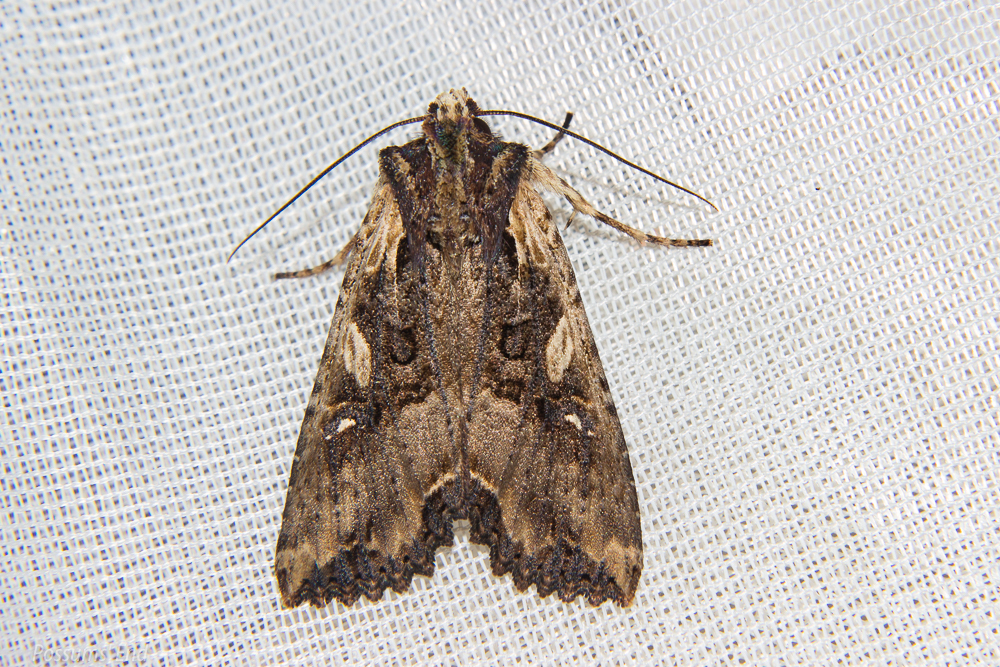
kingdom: Animalia
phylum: Arthropoda
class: Insecta
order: Lepidoptera
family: Noctuidae
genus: Meterana
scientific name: Meterana stipata
